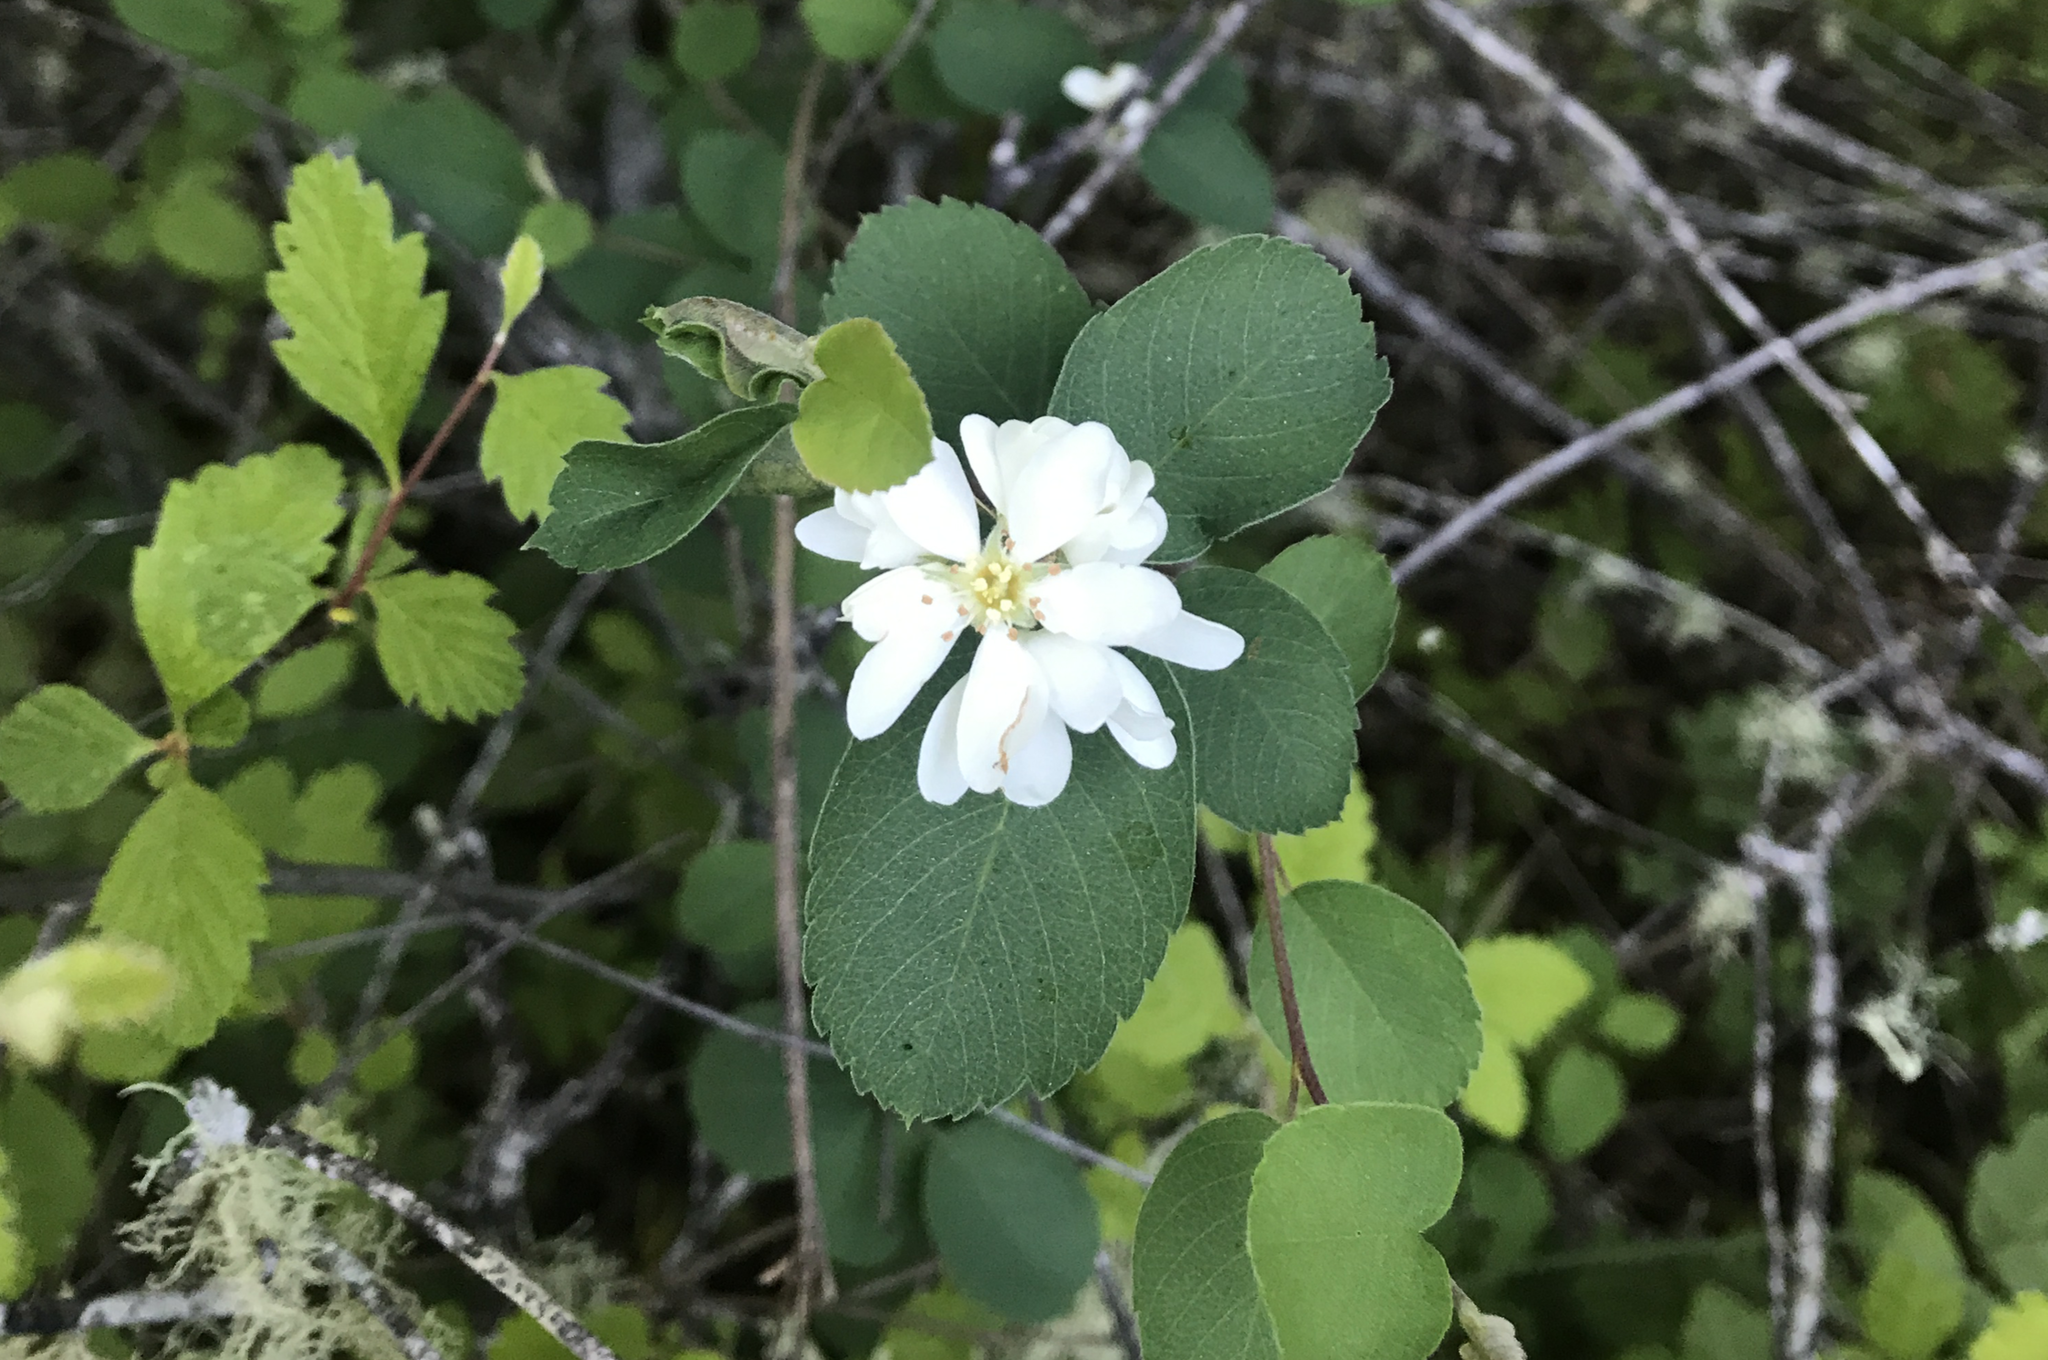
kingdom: Plantae
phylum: Tracheophyta
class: Magnoliopsida
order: Rosales
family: Rosaceae
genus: Amelanchier
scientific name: Amelanchier utahensis
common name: Utah serviceberry
